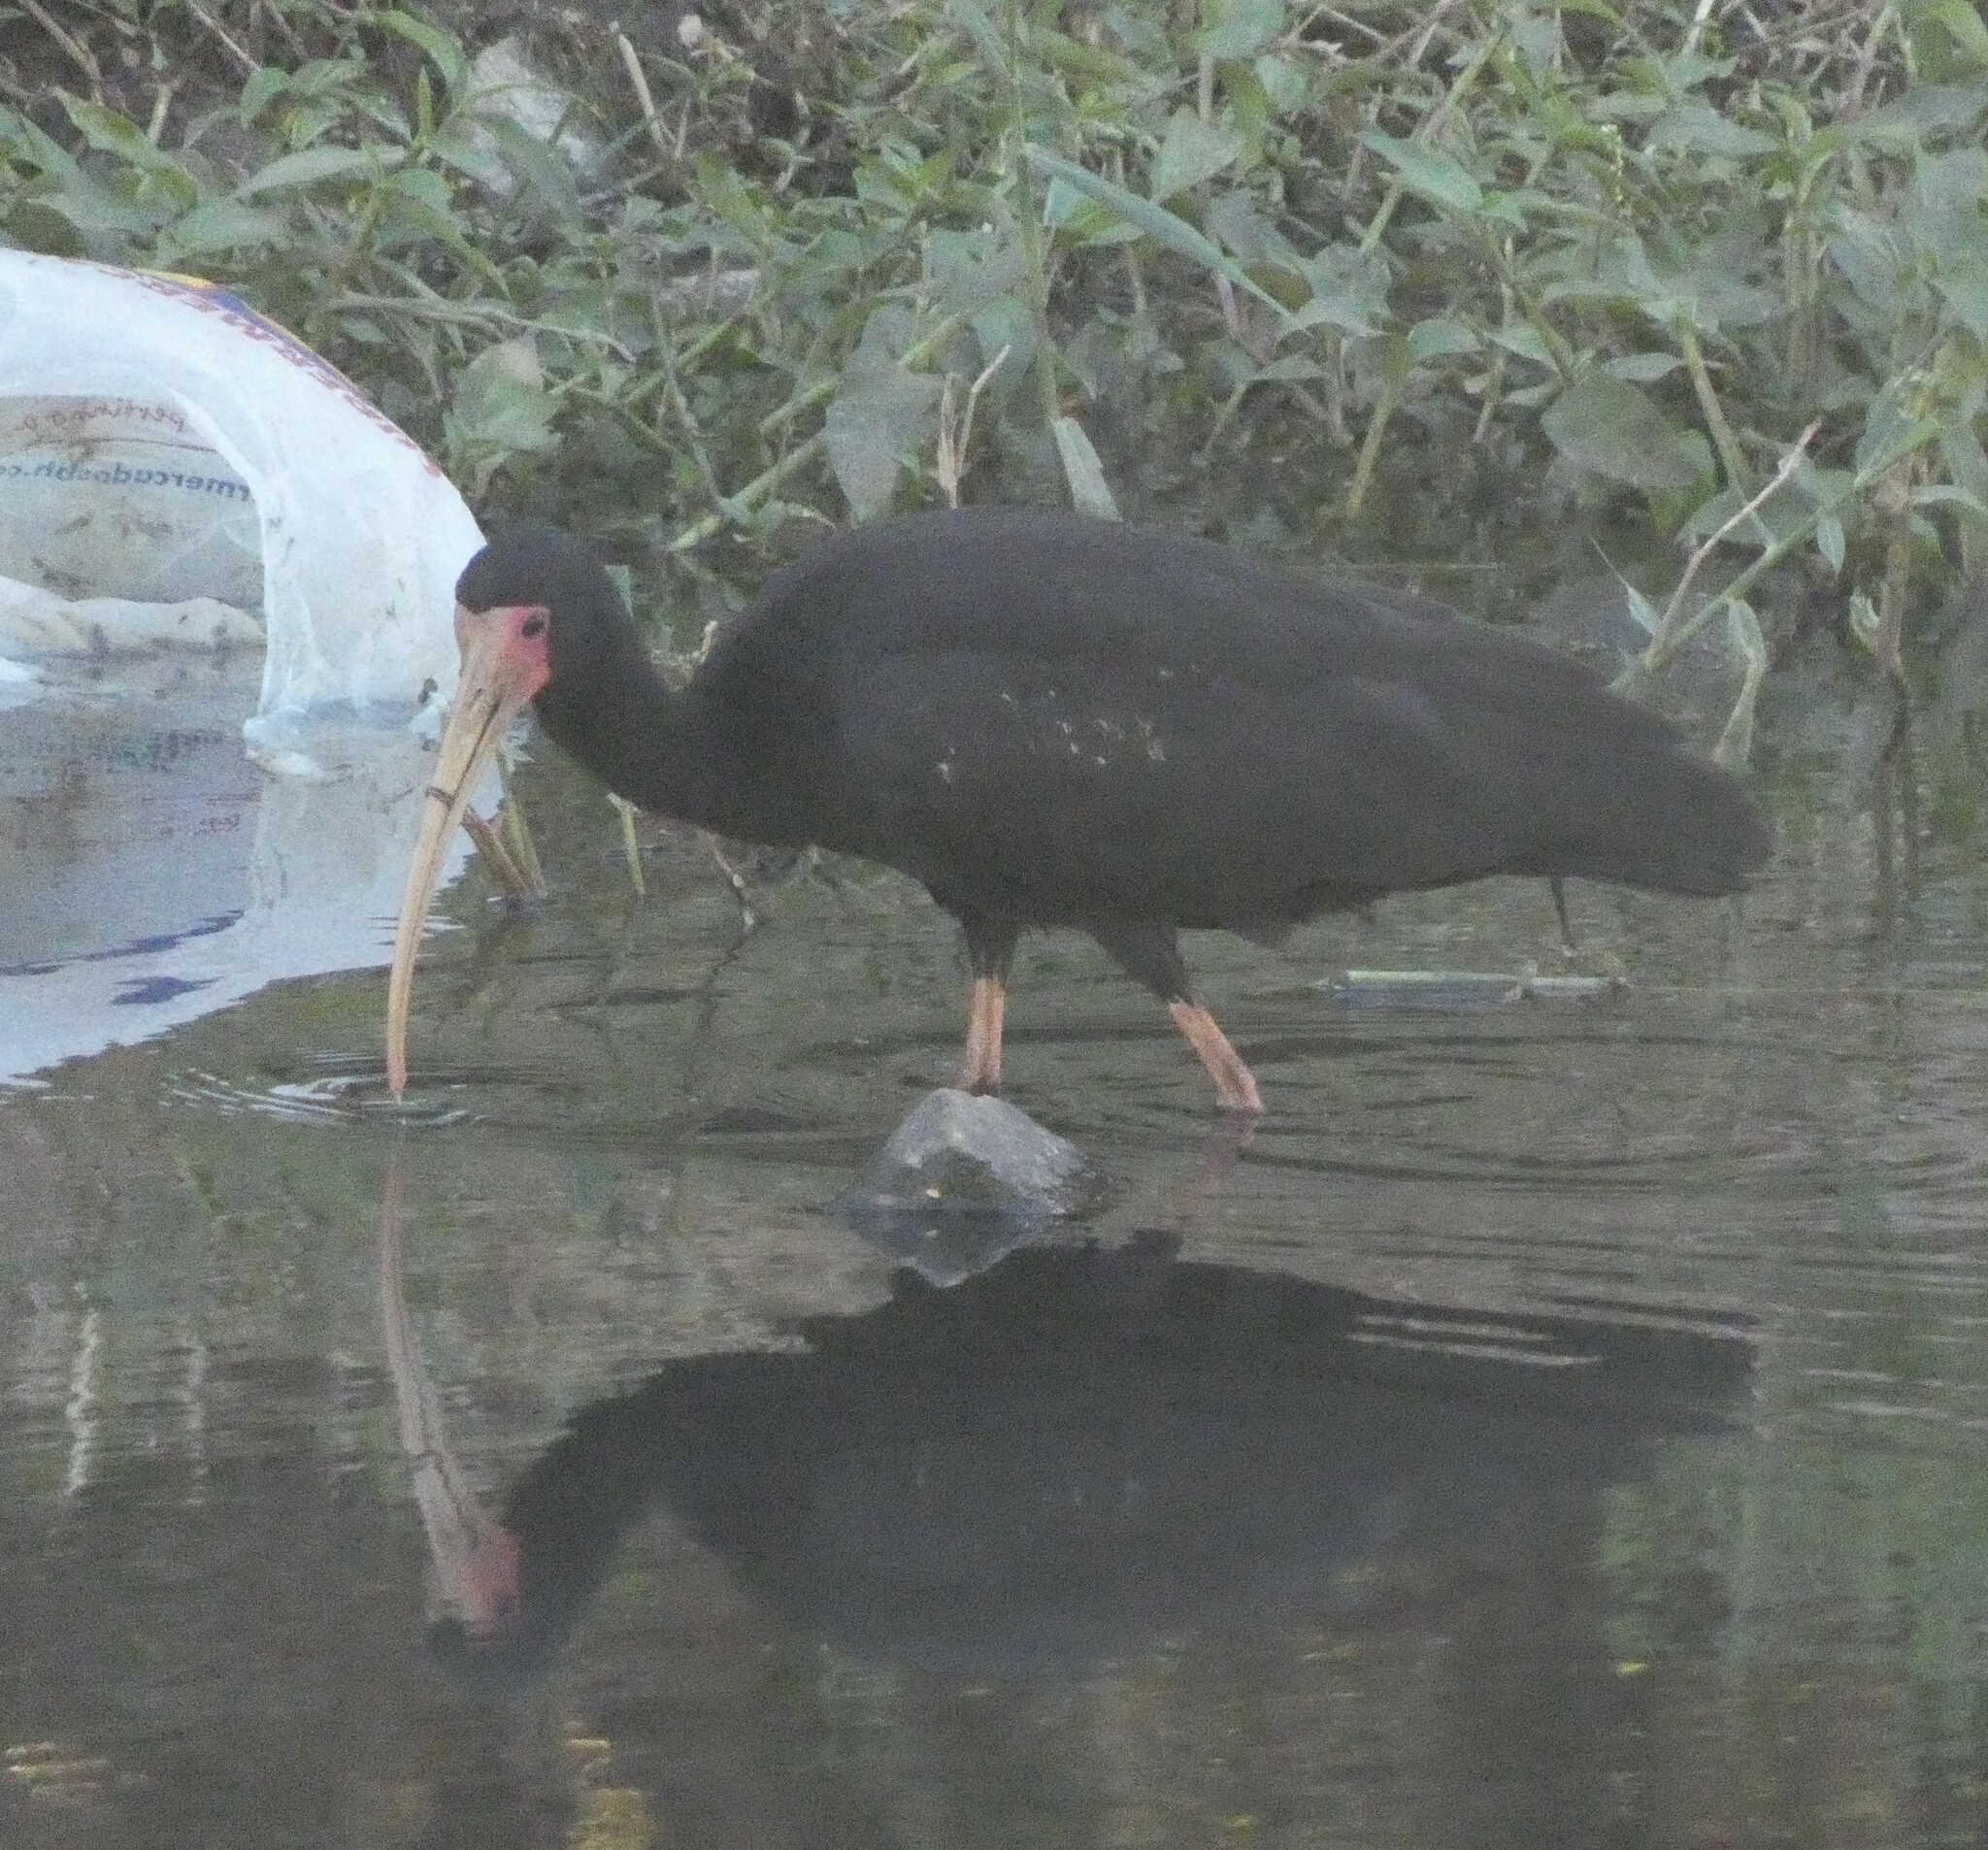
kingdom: Animalia
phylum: Chordata
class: Aves
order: Pelecaniformes
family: Threskiornithidae
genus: Phimosus
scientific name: Phimosus infuscatus
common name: Bare-faced ibis
